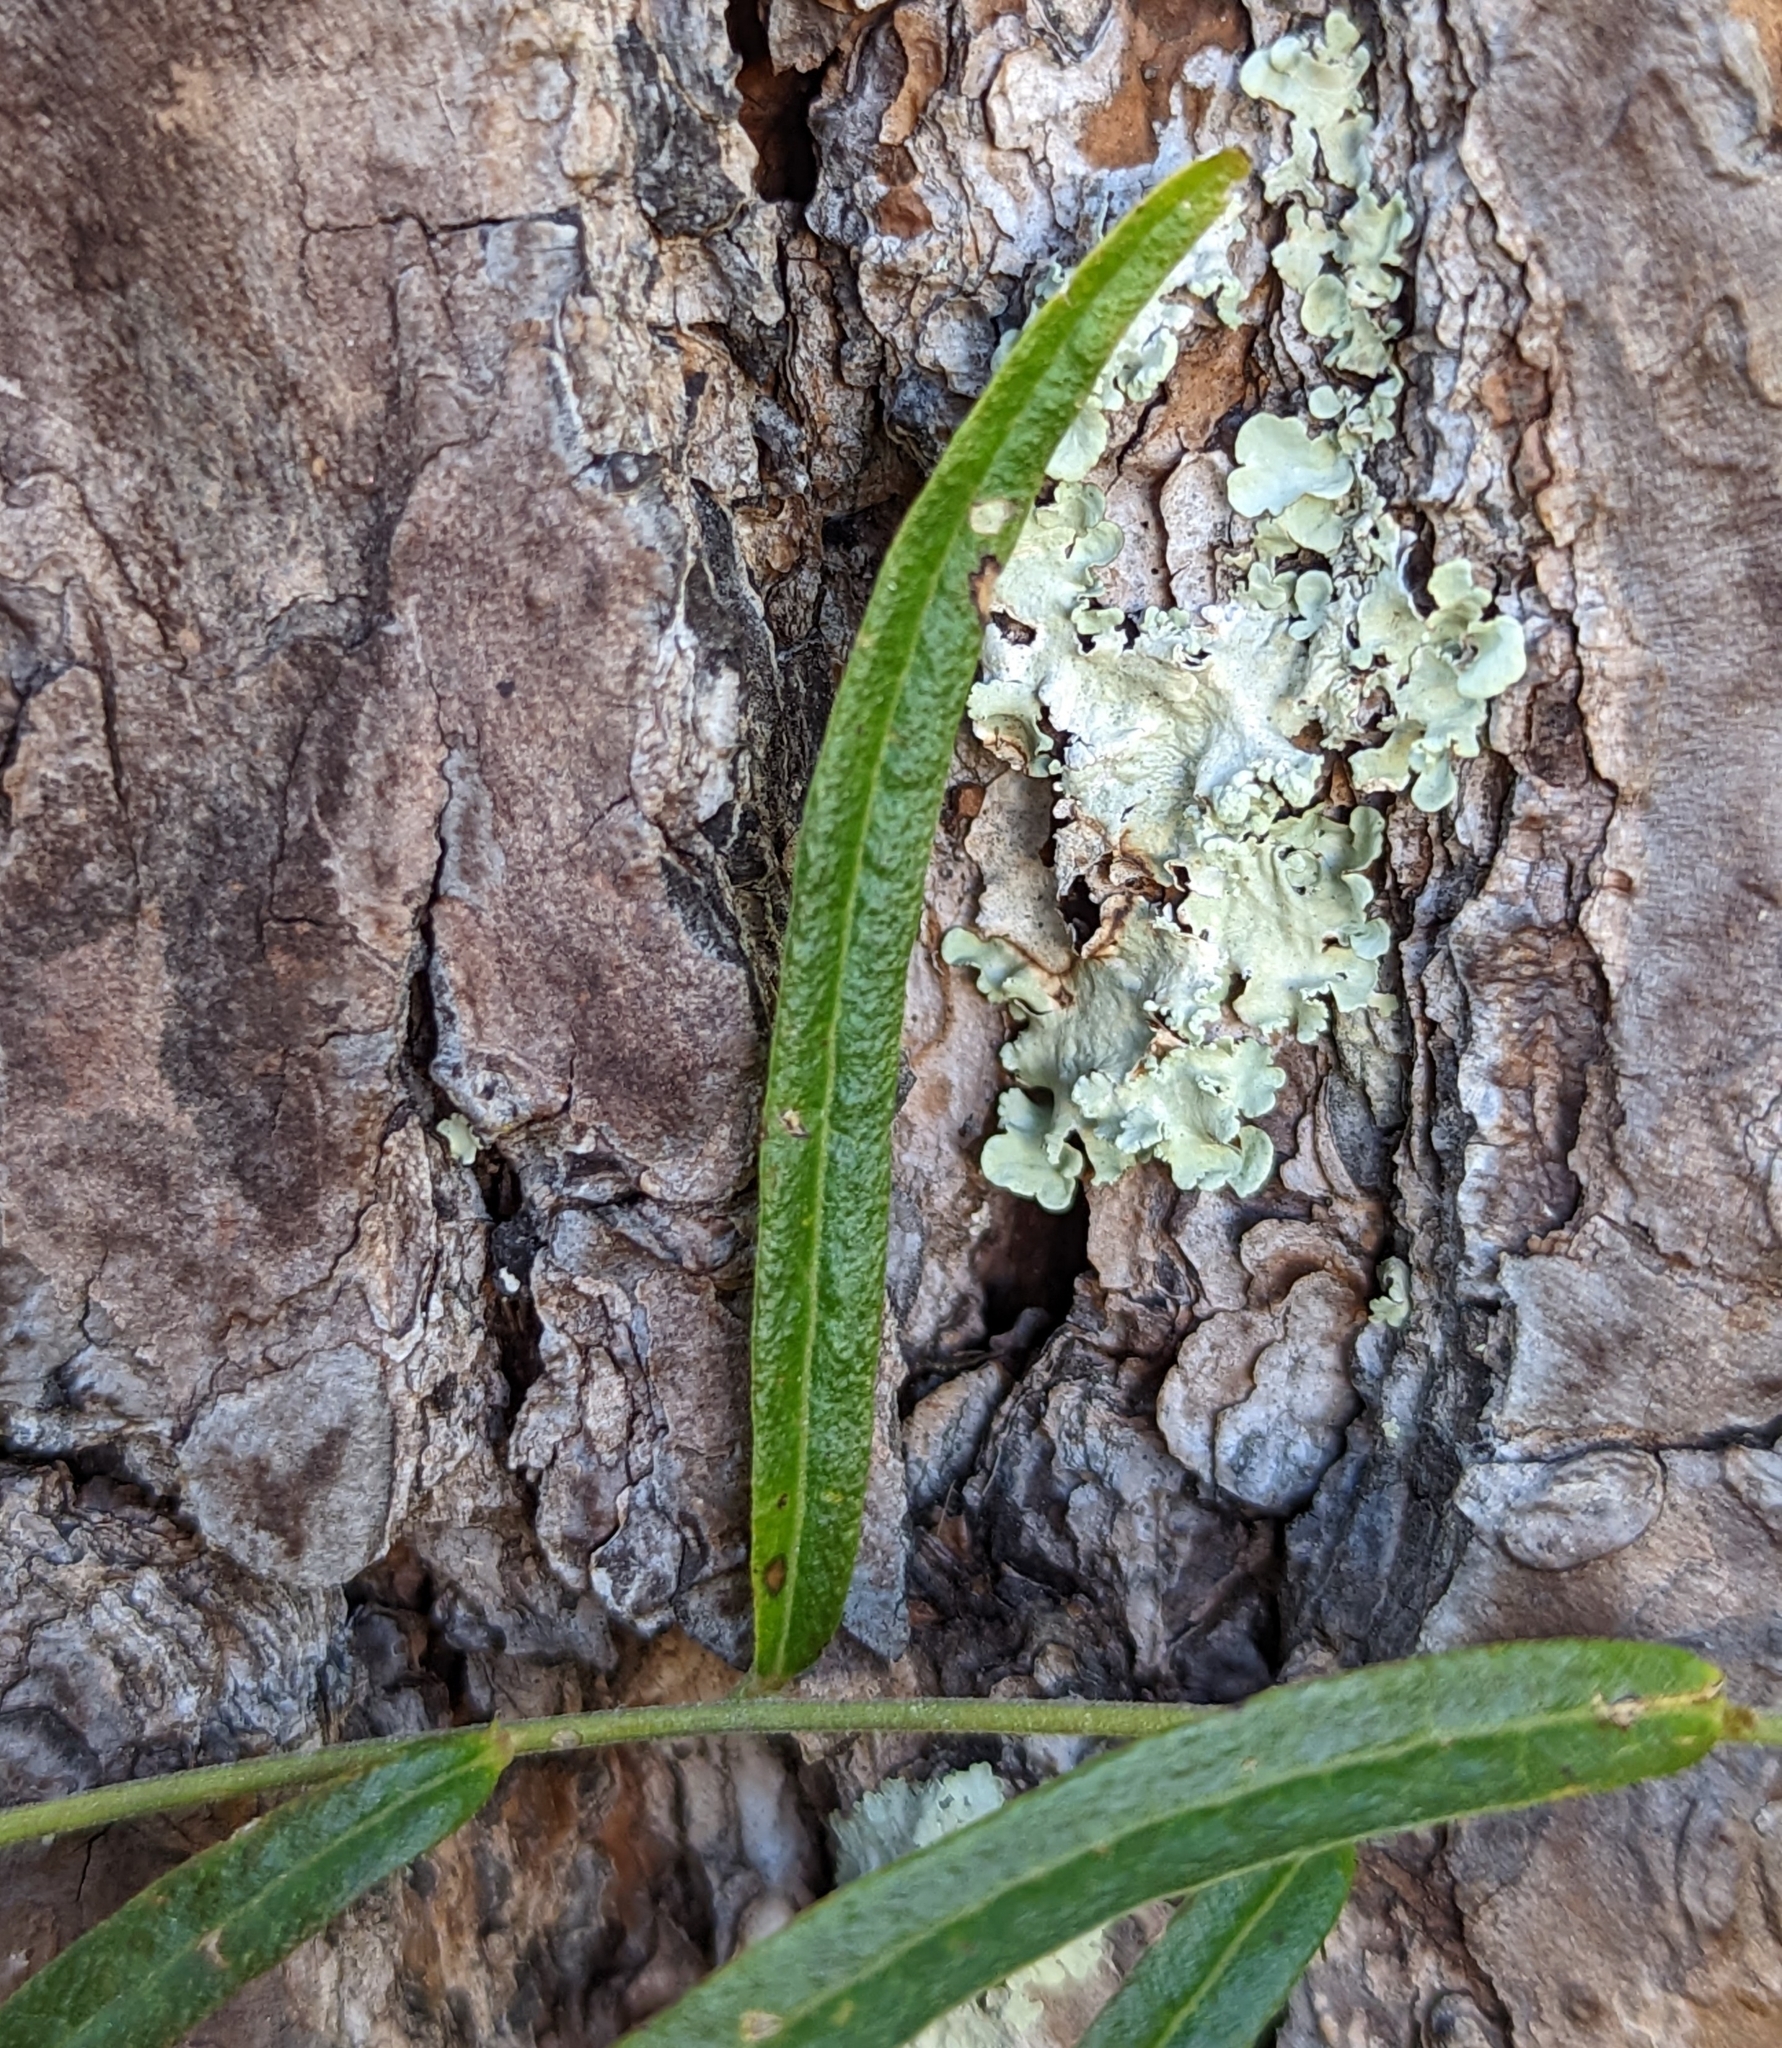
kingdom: Plantae
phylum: Tracheophyta
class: Magnoliopsida
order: Malpighiales
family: Euphorbiaceae
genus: Tragia
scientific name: Tragia urens
